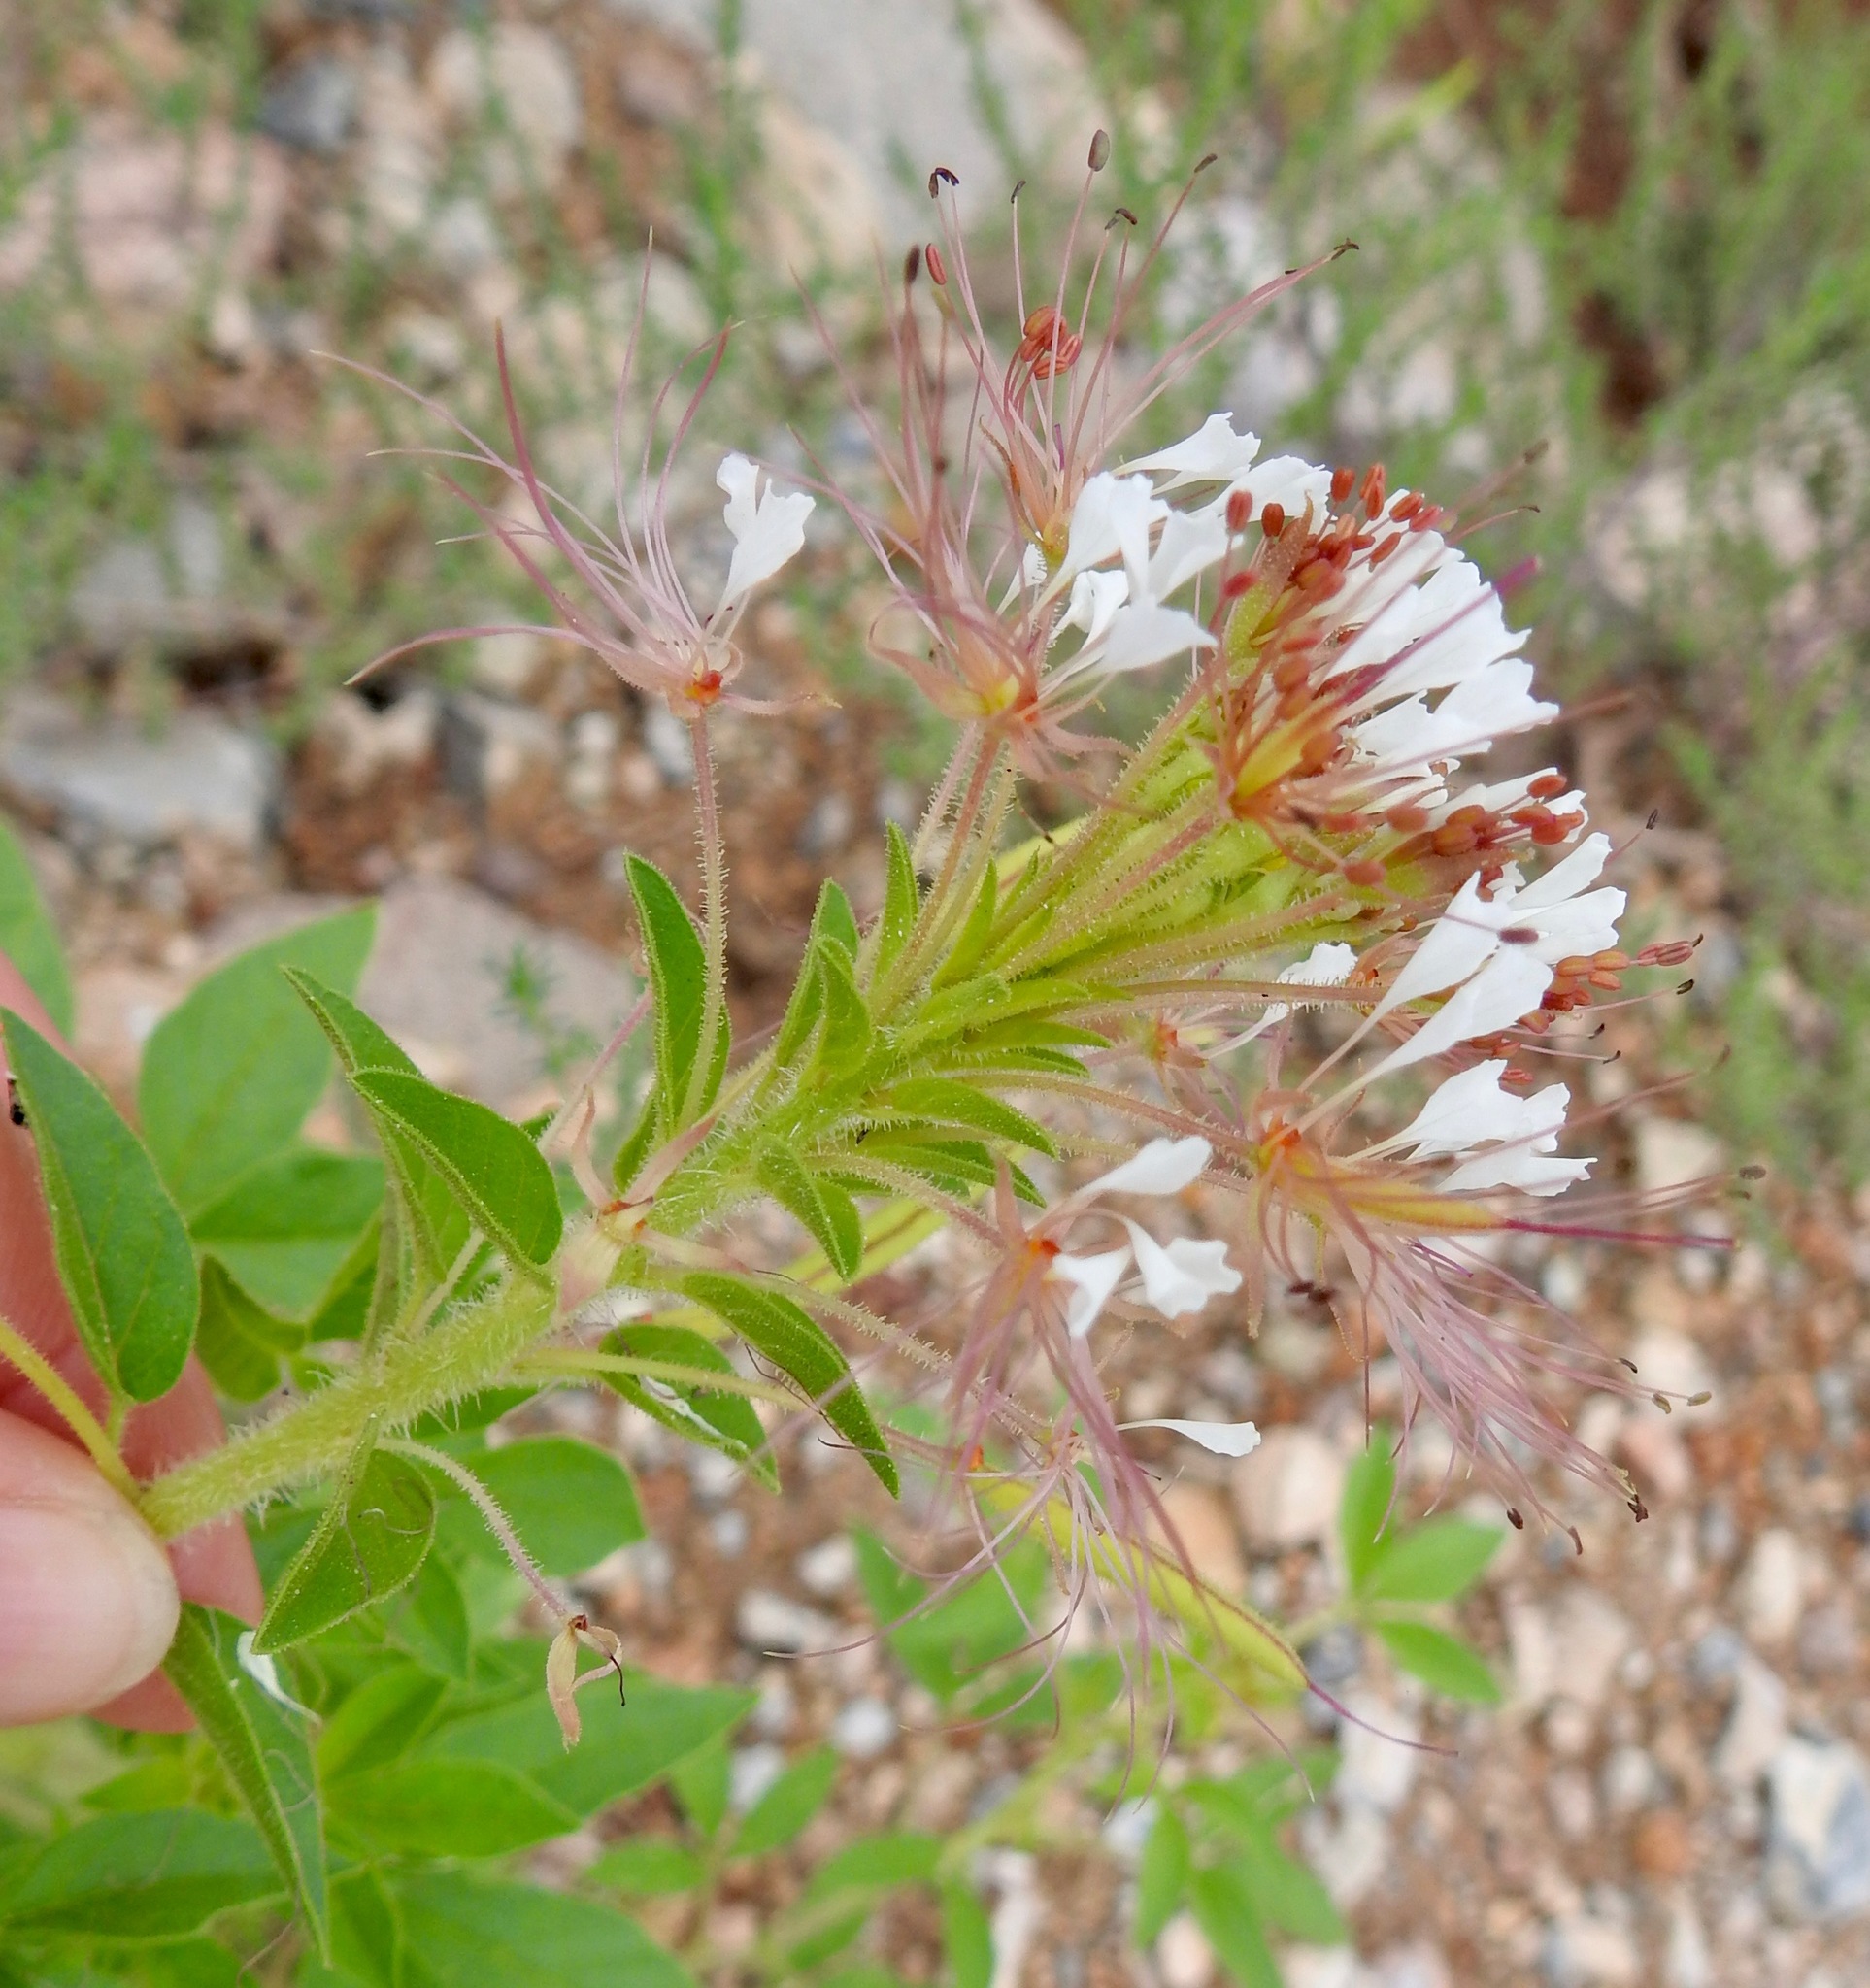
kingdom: Plantae
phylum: Tracheophyta
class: Magnoliopsida
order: Brassicales
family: Cleomaceae
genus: Polanisia
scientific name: Polanisia dodecandra
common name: Clammyweed
